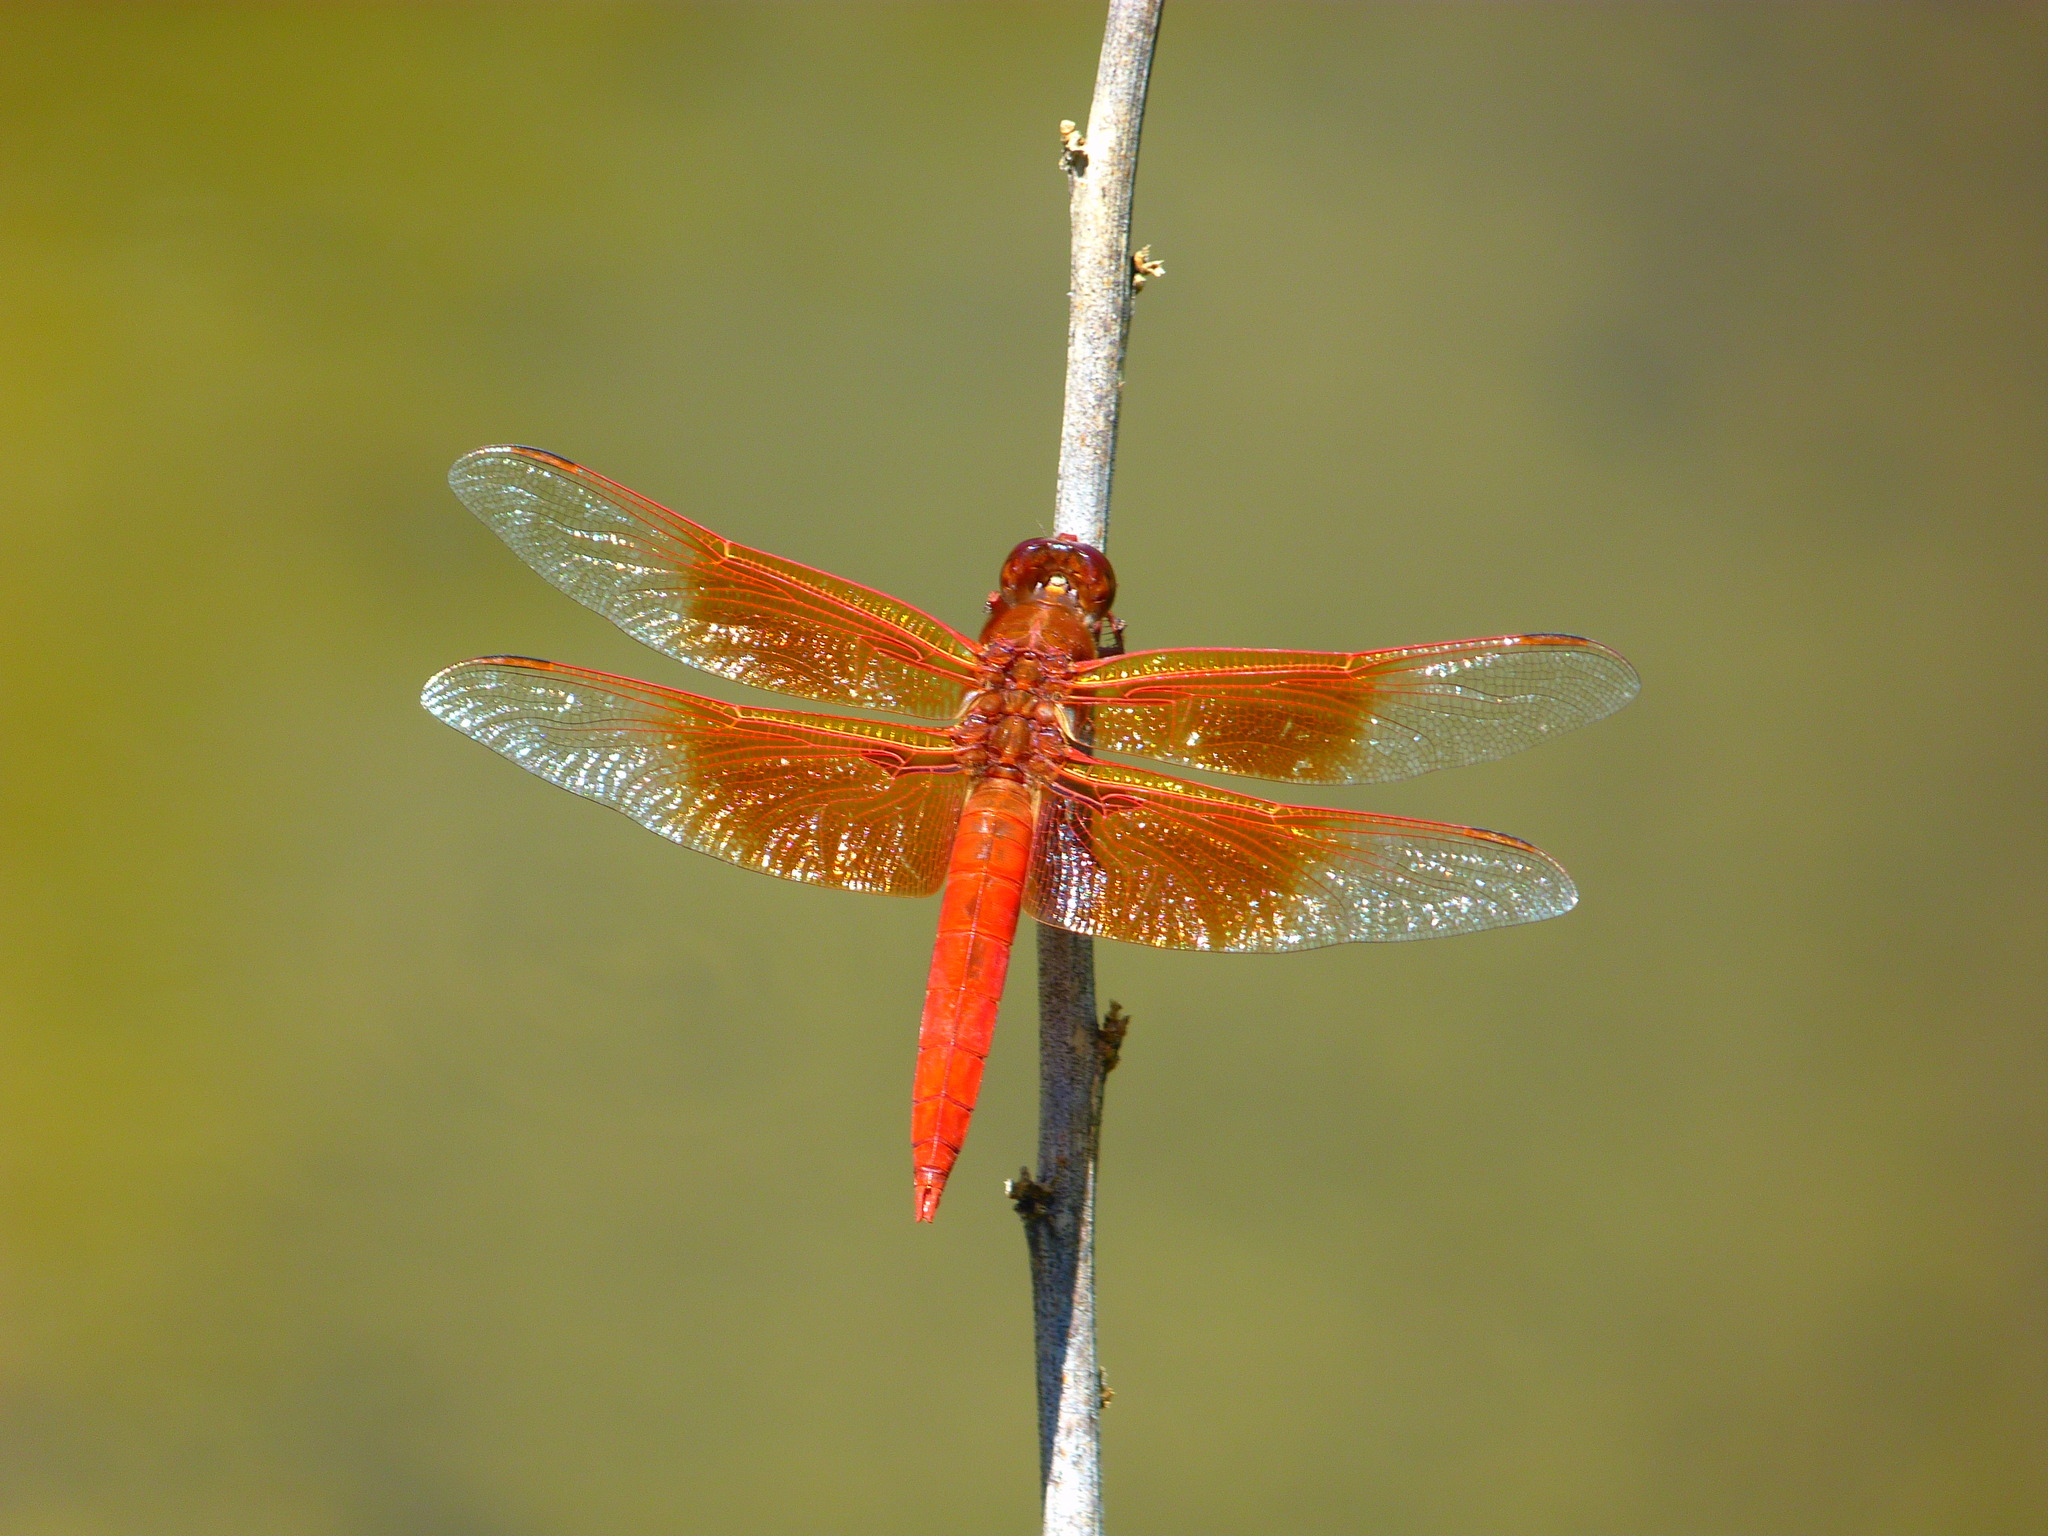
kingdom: Animalia
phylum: Arthropoda
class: Insecta
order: Odonata
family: Libellulidae
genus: Libellula
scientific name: Libellula saturata
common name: Flame skimmer
